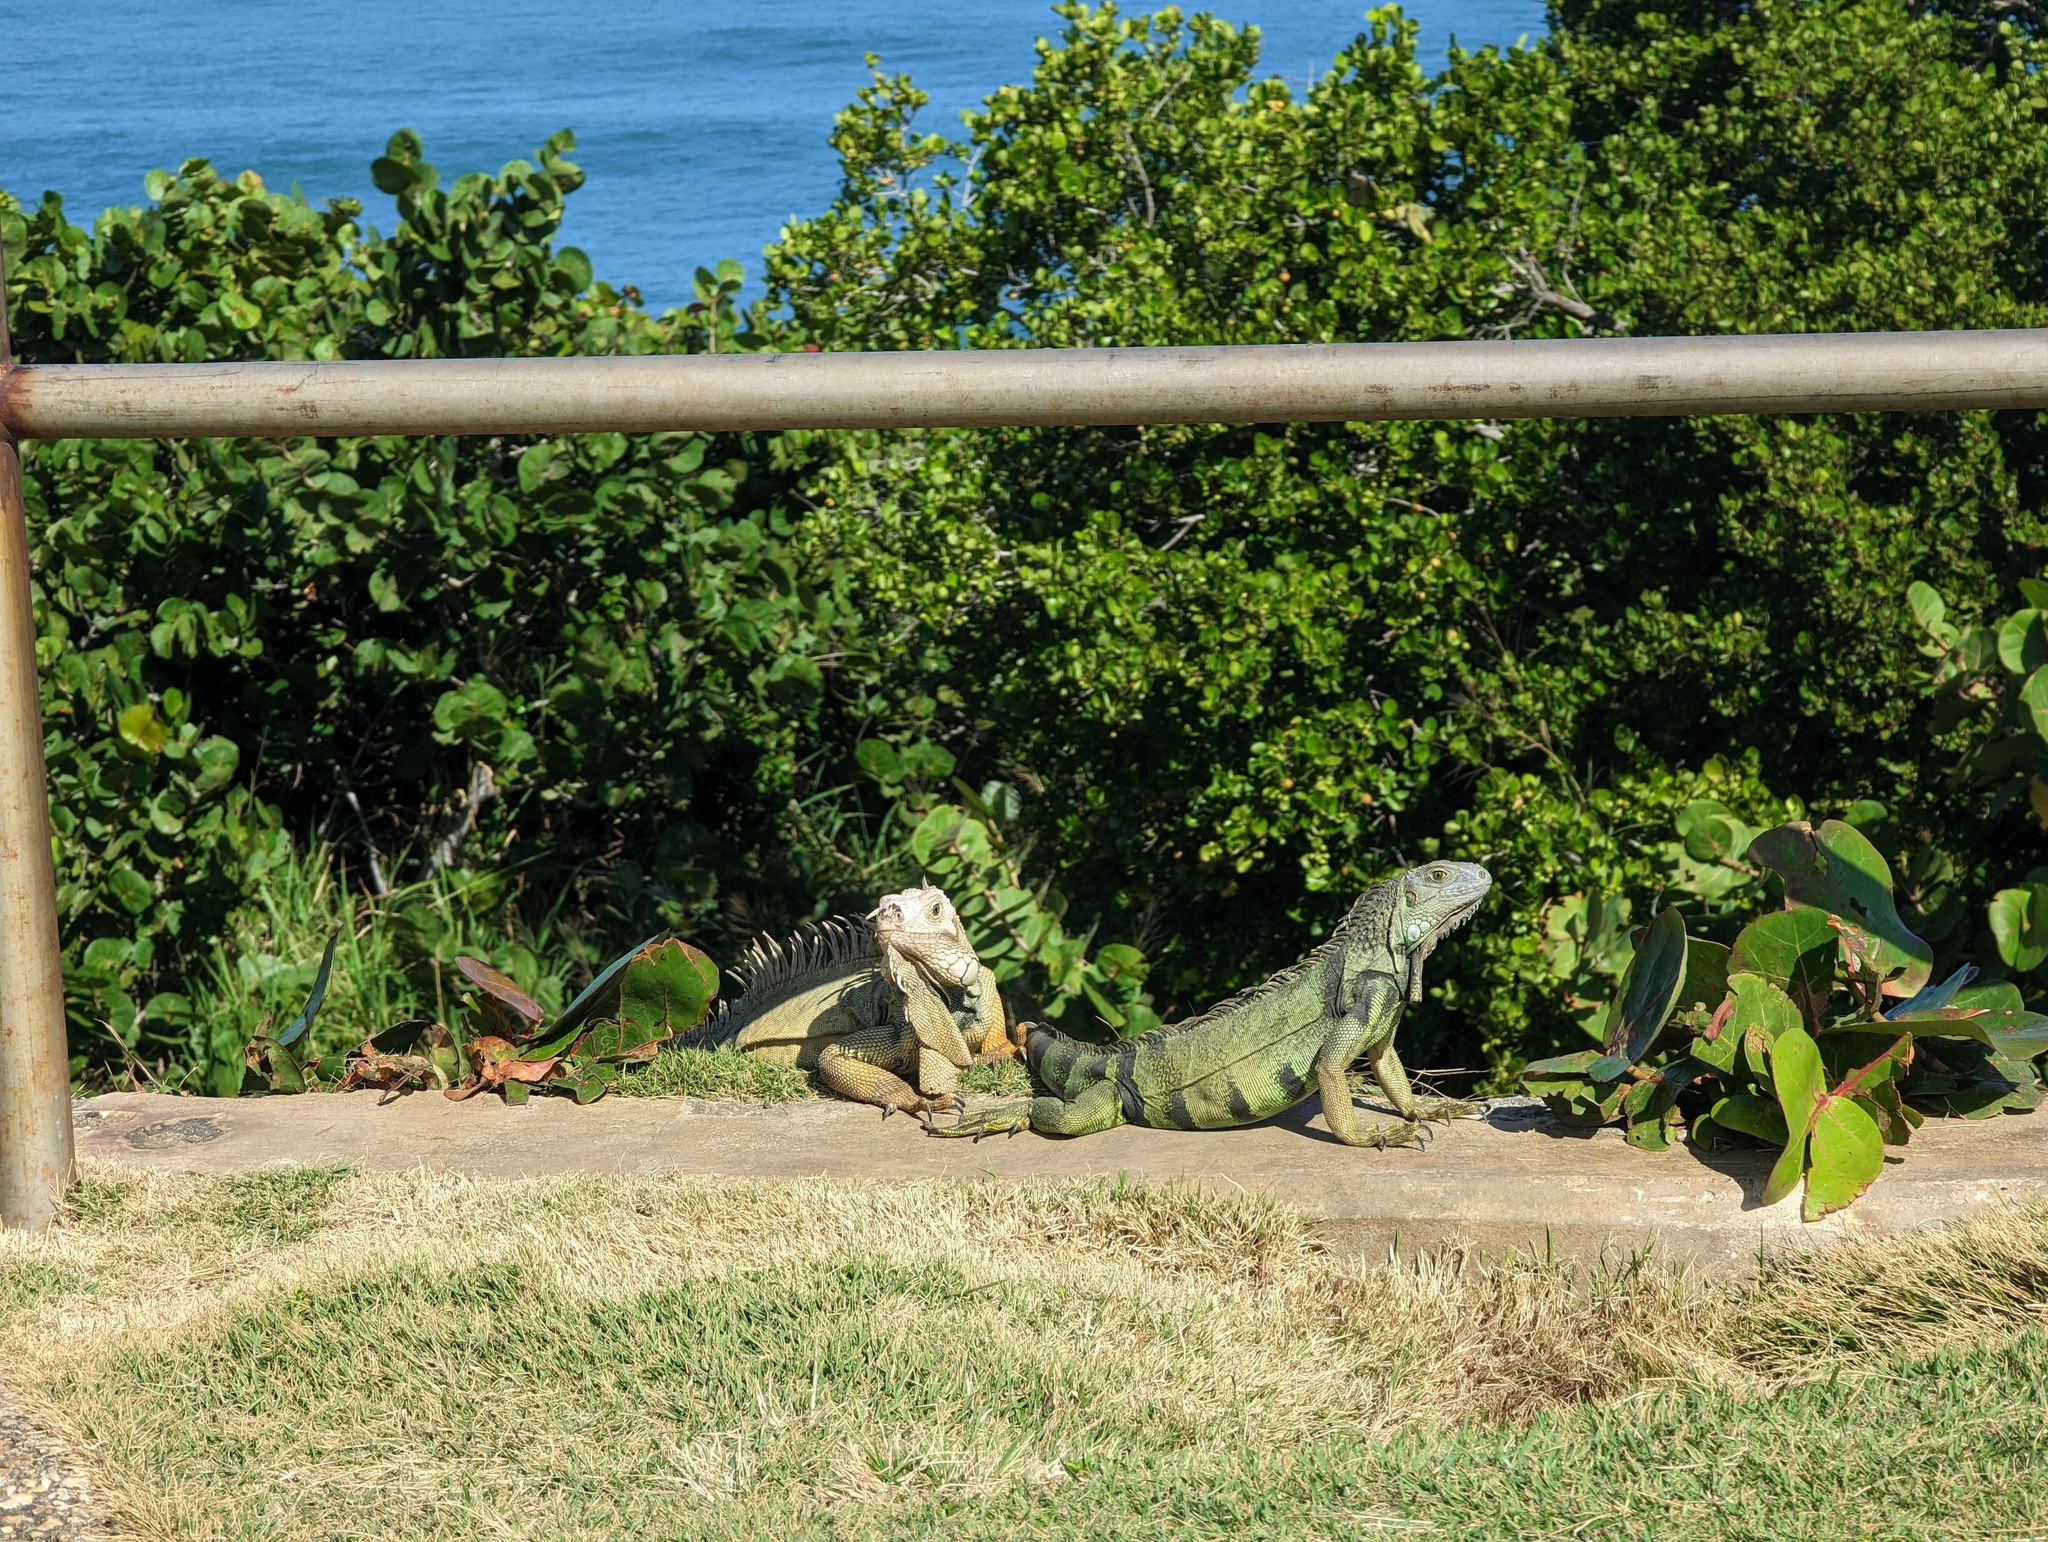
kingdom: Animalia
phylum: Chordata
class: Squamata
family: Iguanidae
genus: Iguana
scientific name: Iguana iguana
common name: Green iguana
